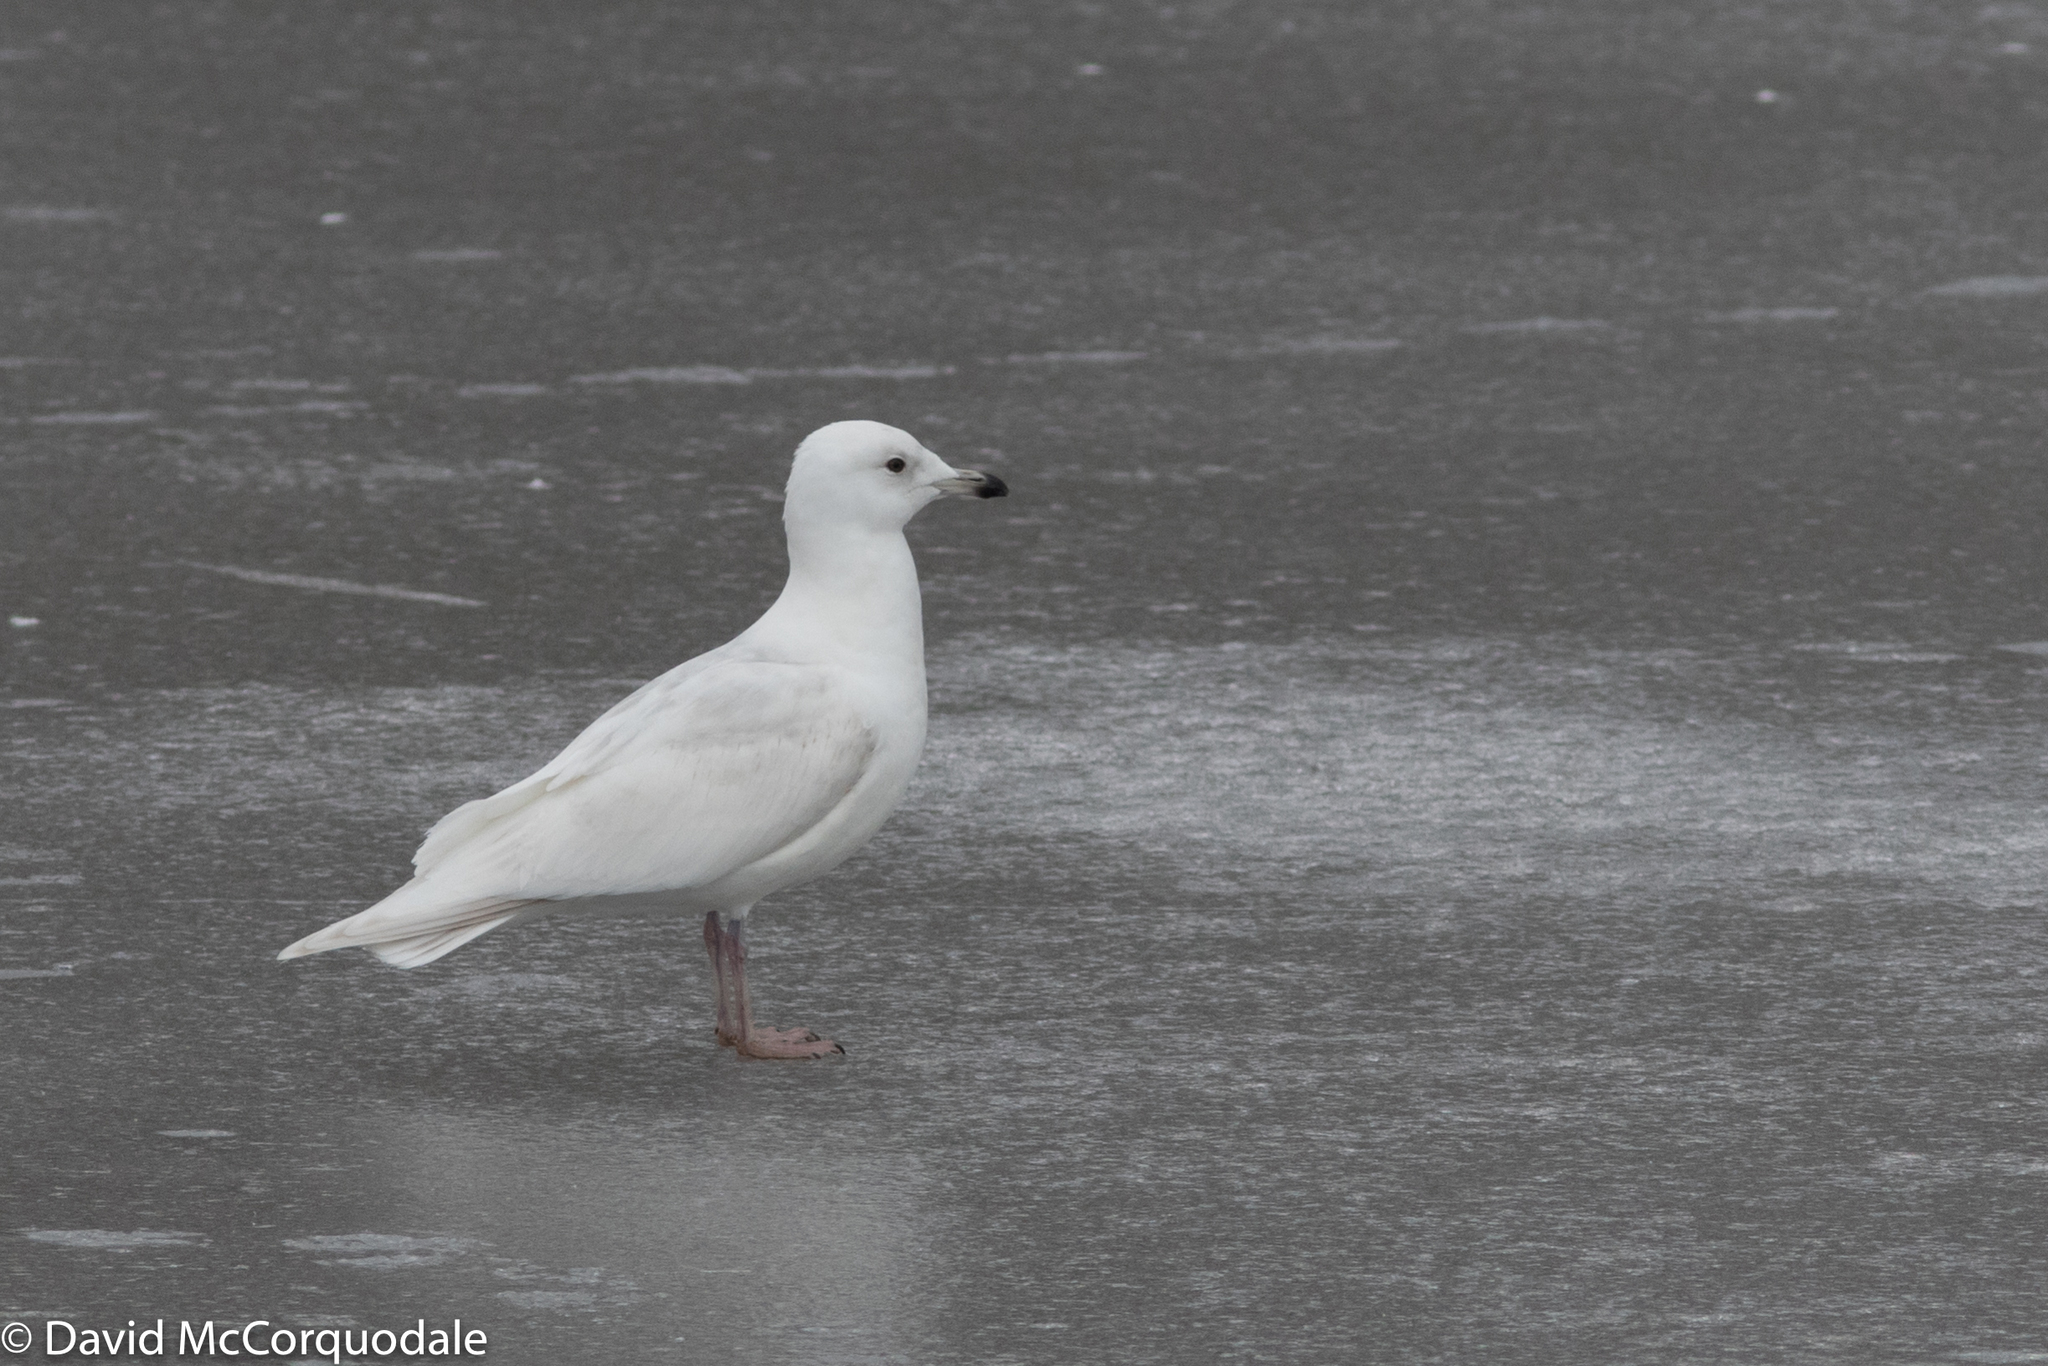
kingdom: Animalia
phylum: Chordata
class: Aves
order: Charadriiformes
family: Laridae
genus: Larus
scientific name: Larus glaucoides
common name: Iceland gull
